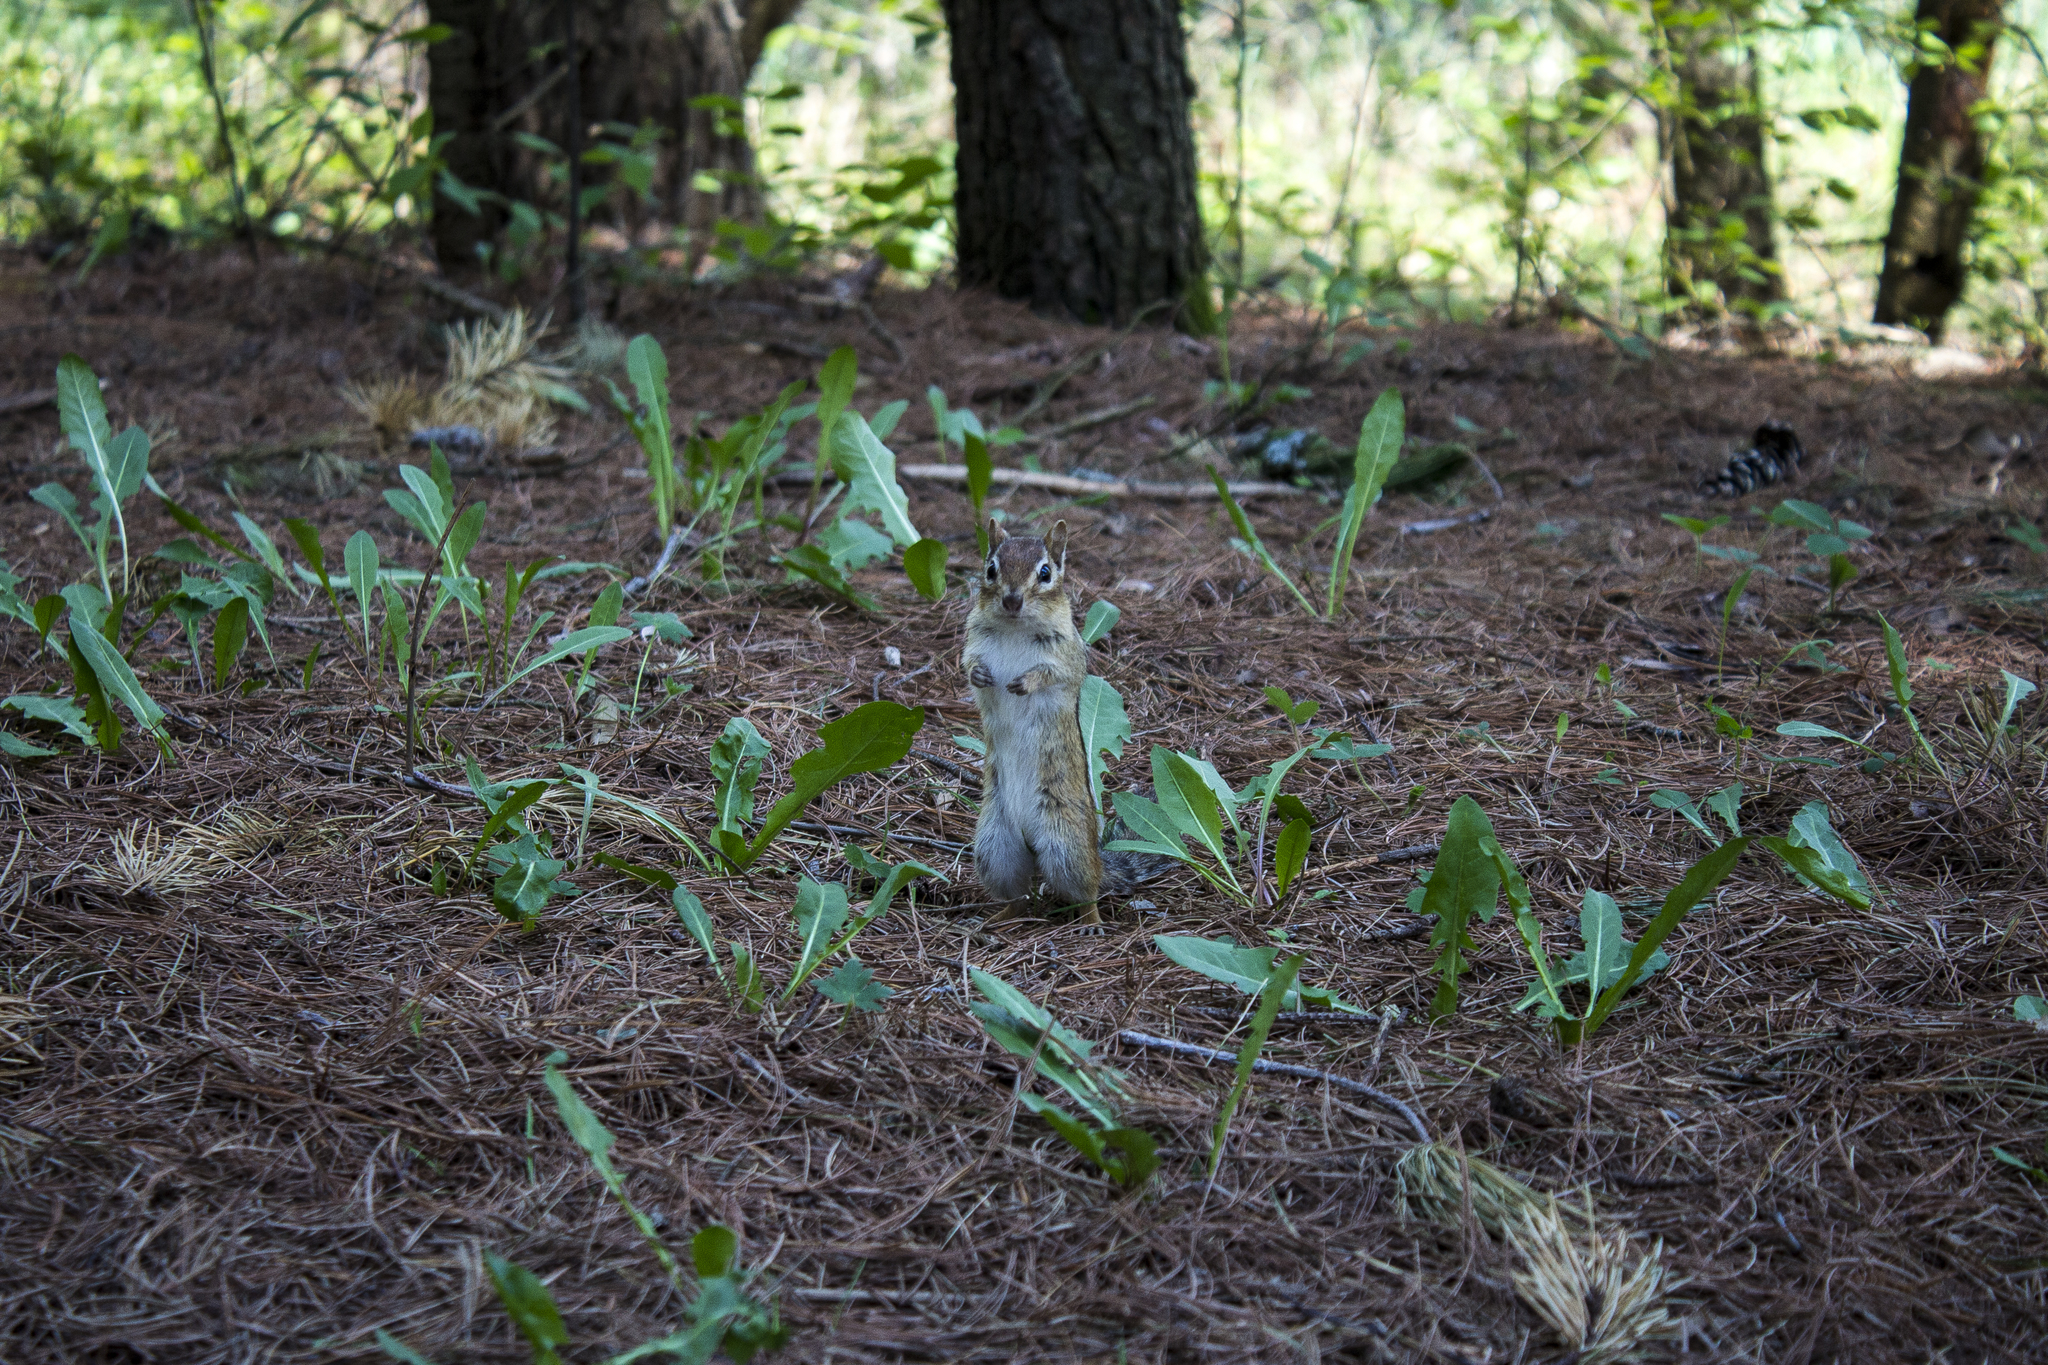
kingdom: Animalia
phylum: Chordata
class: Mammalia
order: Rodentia
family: Sciuridae
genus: Tamias
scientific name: Tamias striatus
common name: Eastern chipmunk
